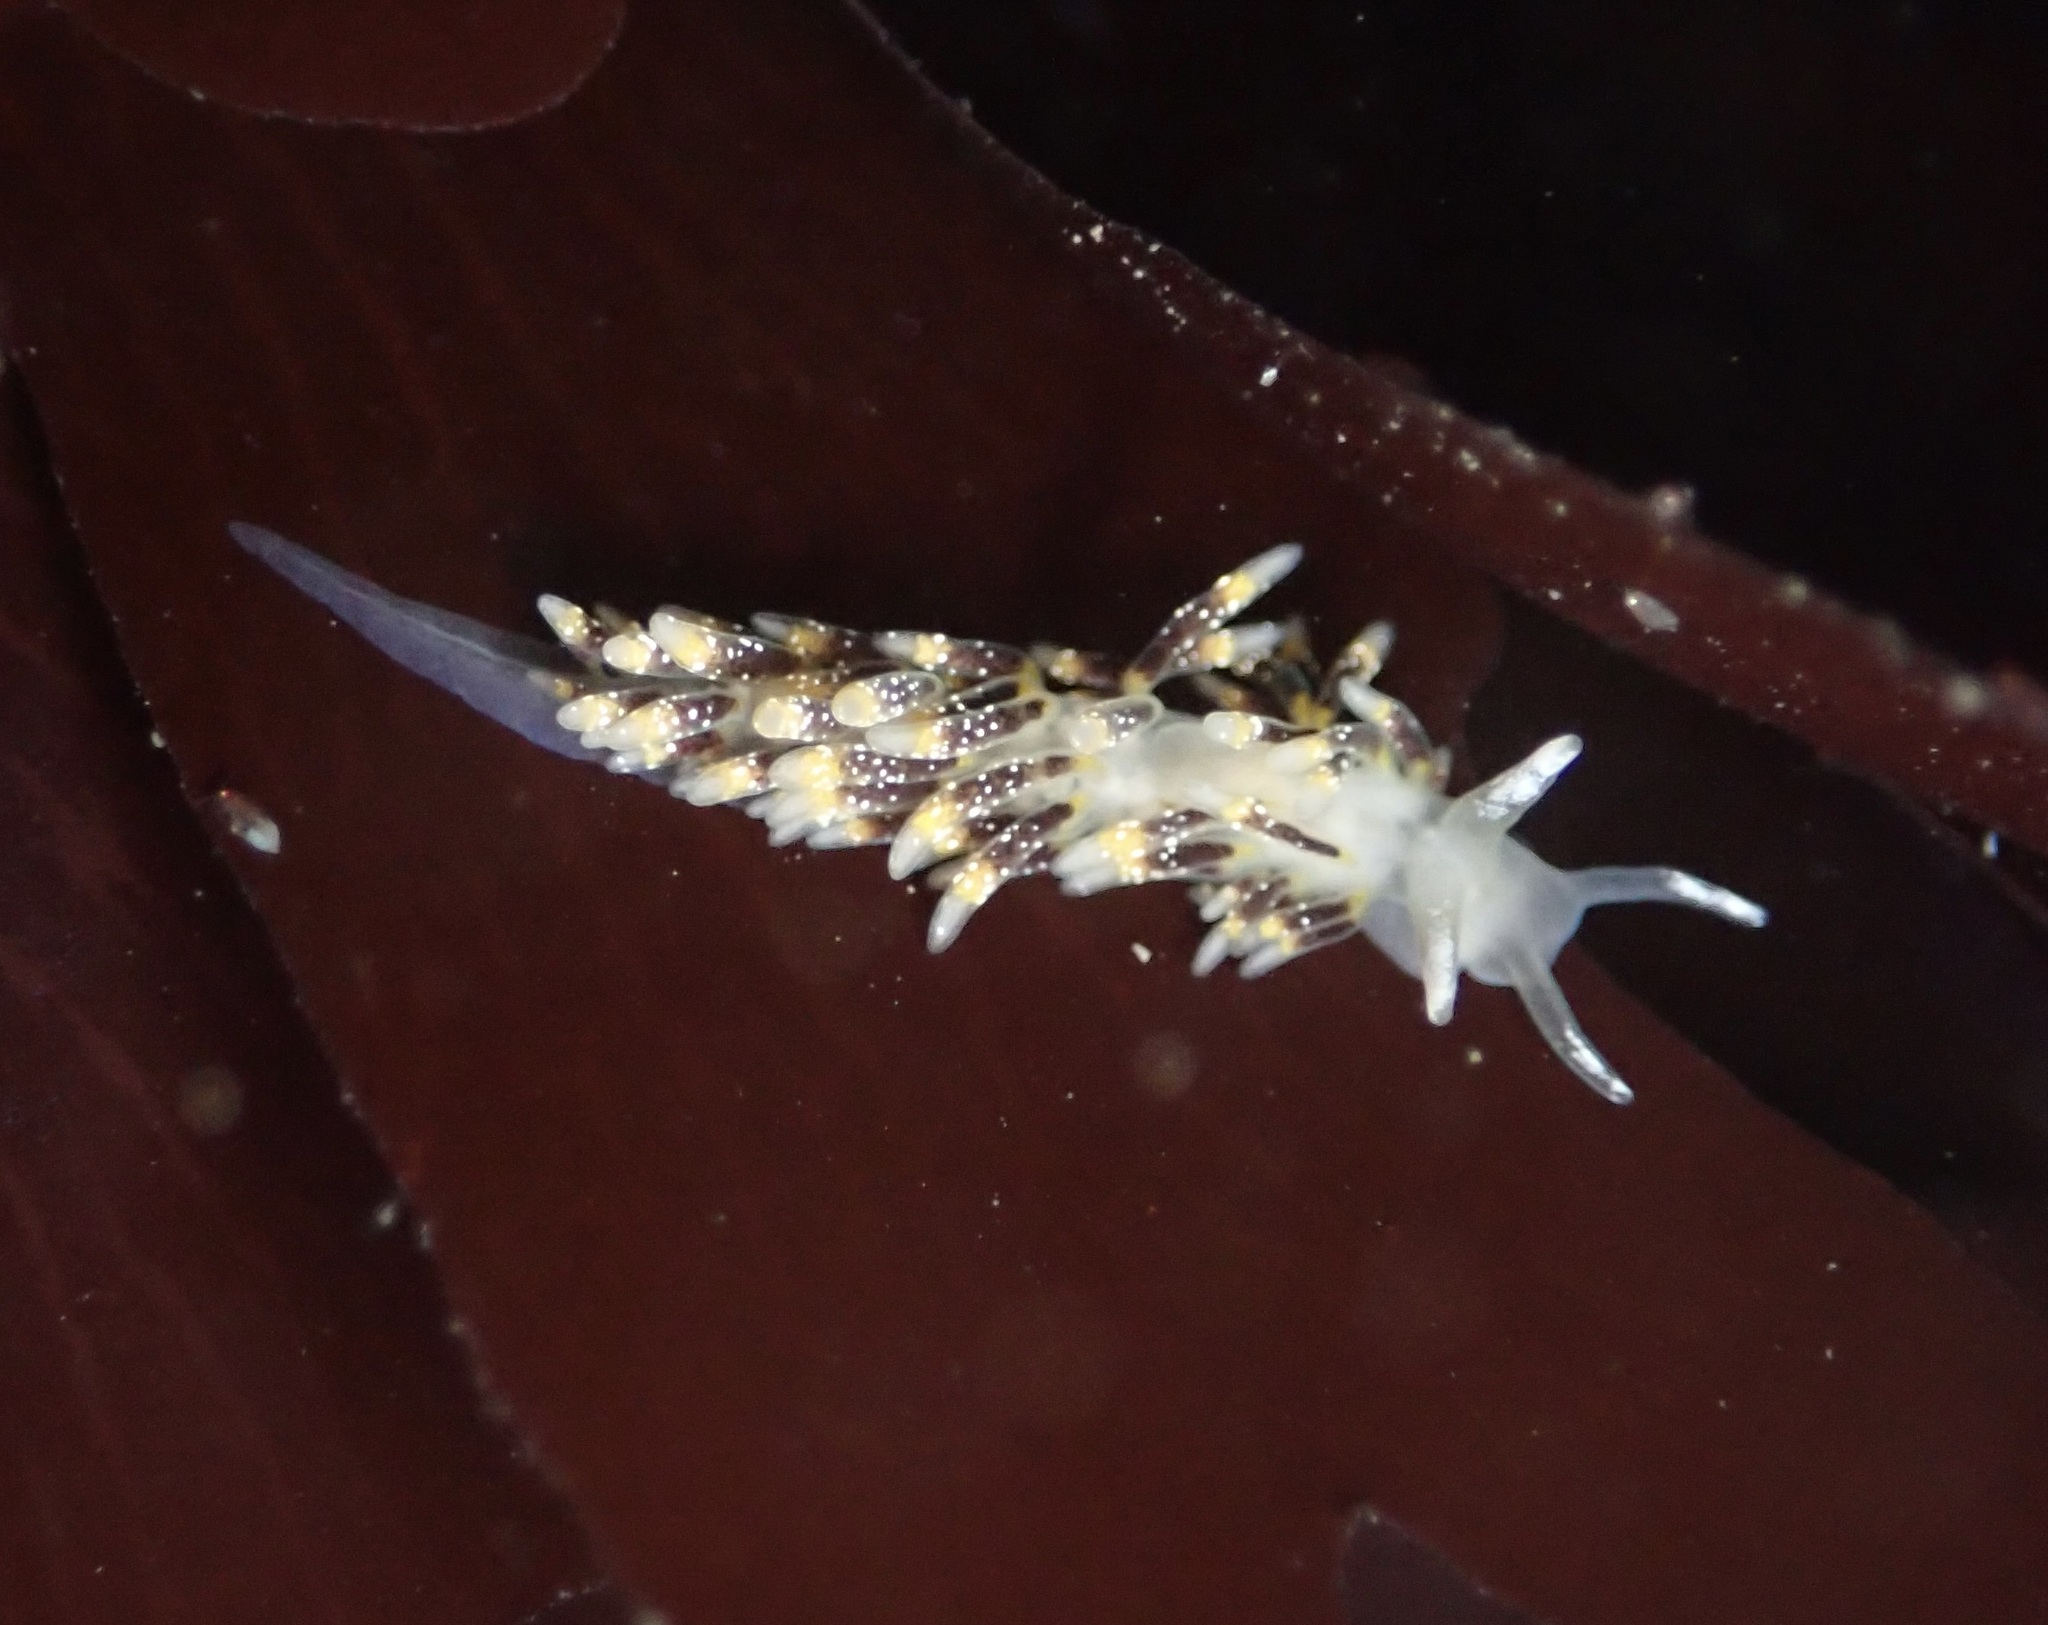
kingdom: Animalia
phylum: Mollusca
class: Gastropoda
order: Nudibranchia
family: Trinchesiidae
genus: Zelentia
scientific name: Zelentia fulgens
